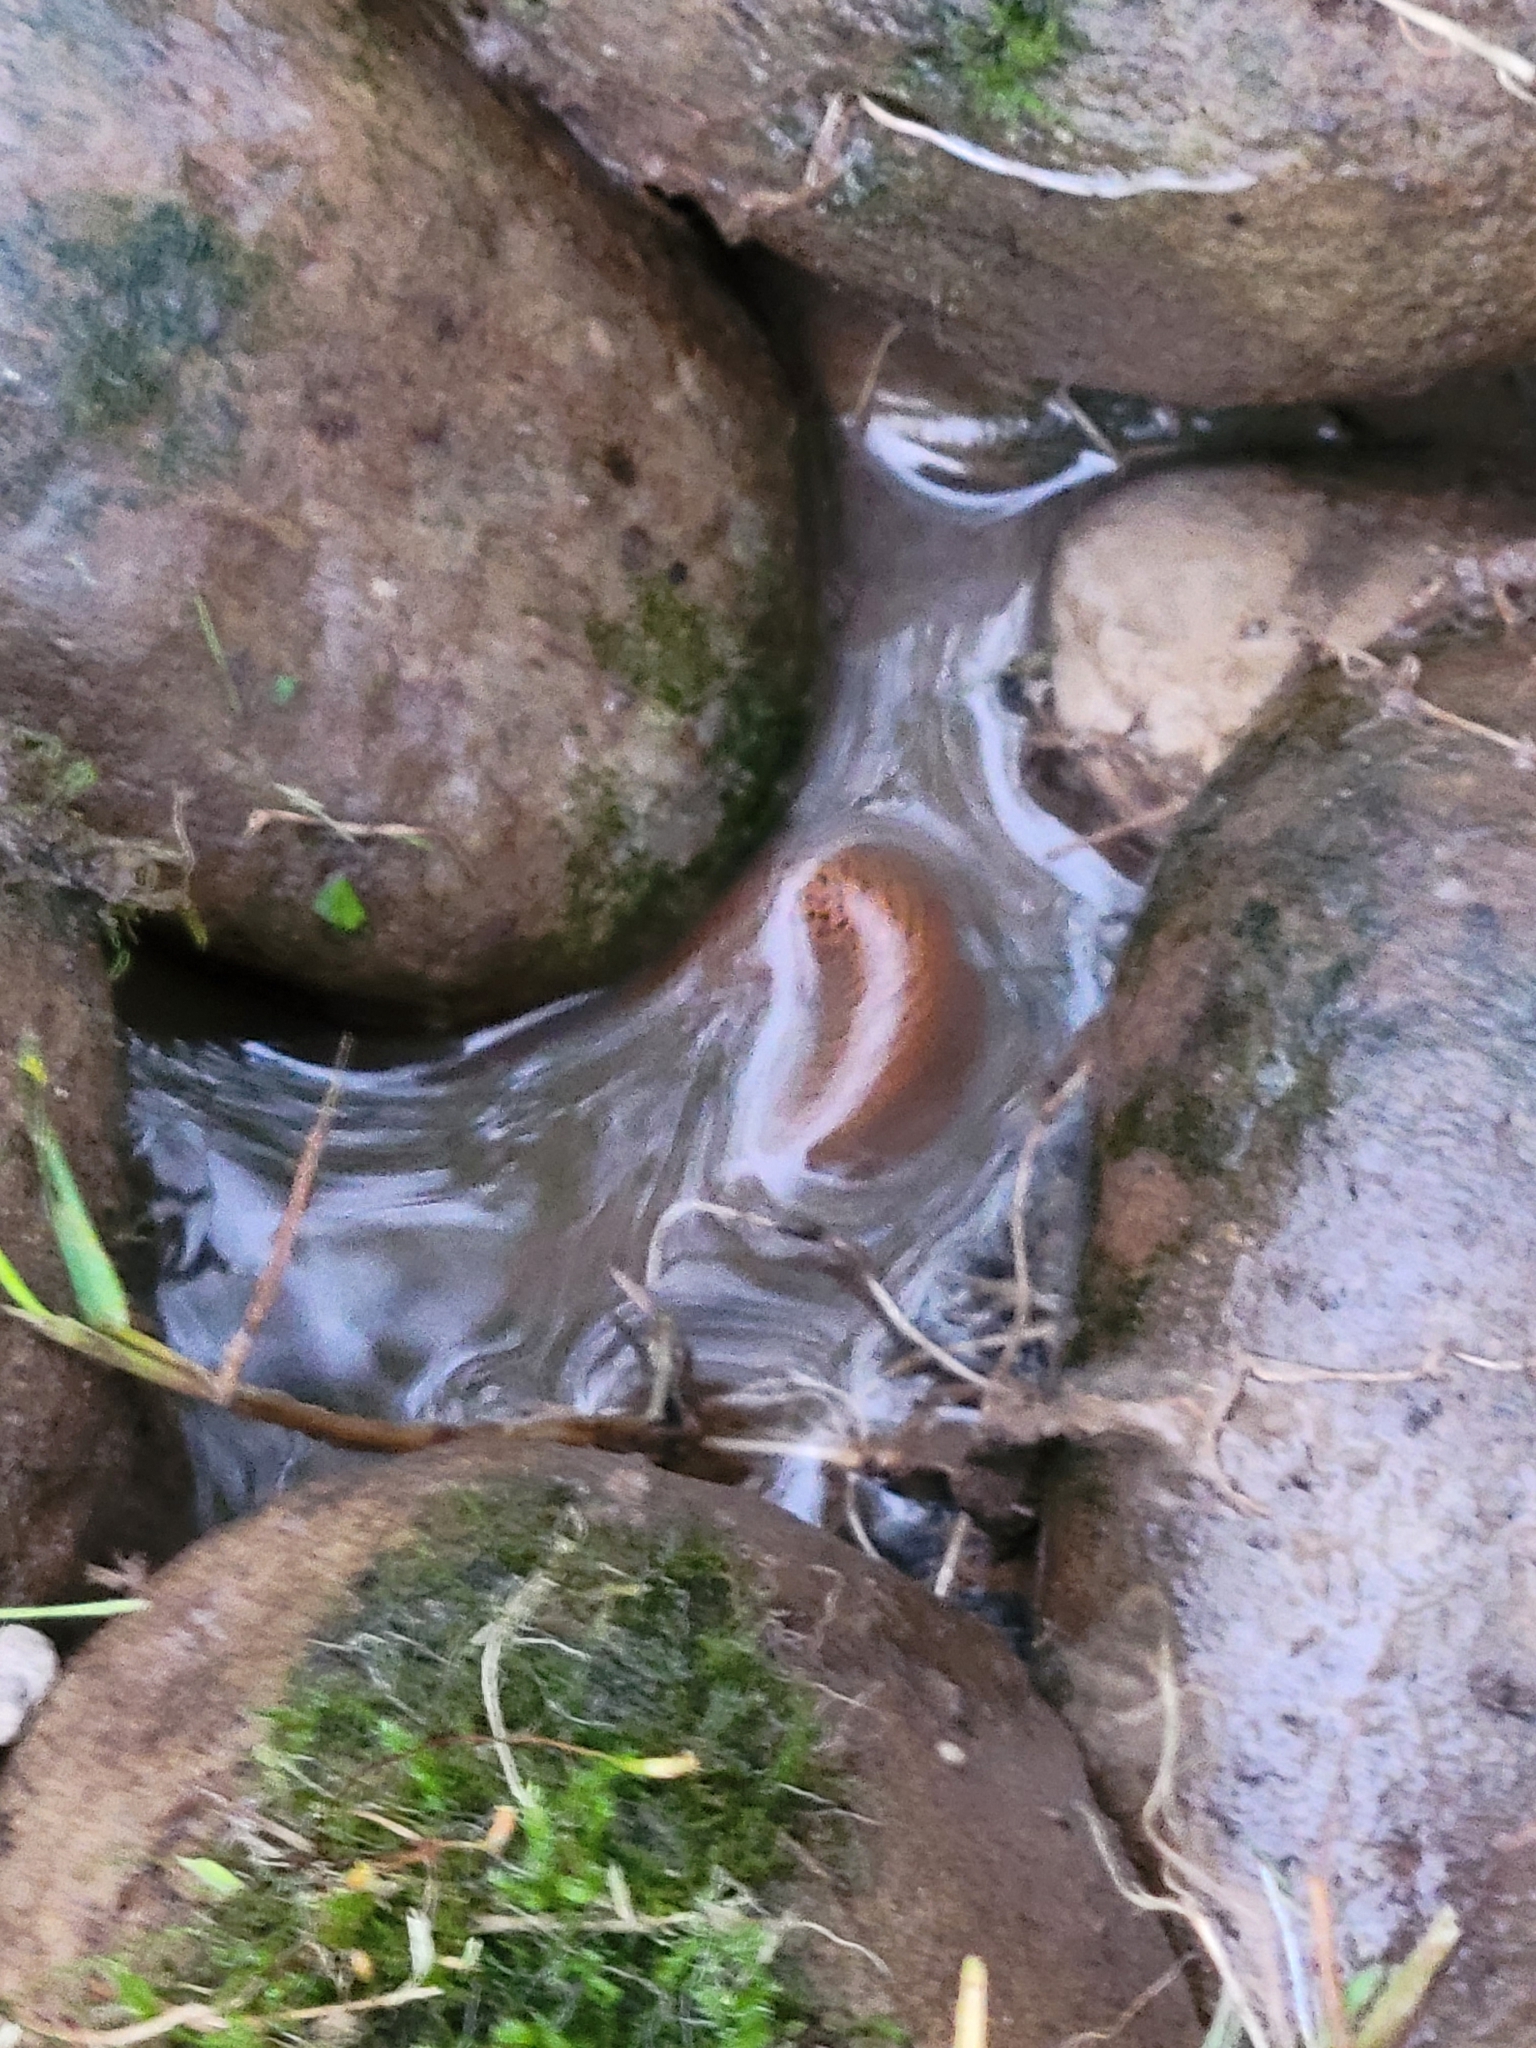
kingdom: Animalia
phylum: Chordata
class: Amphibia
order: Caudata
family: Plethodontidae
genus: Pseudotriton
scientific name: Pseudotriton ruber
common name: Red salamander
